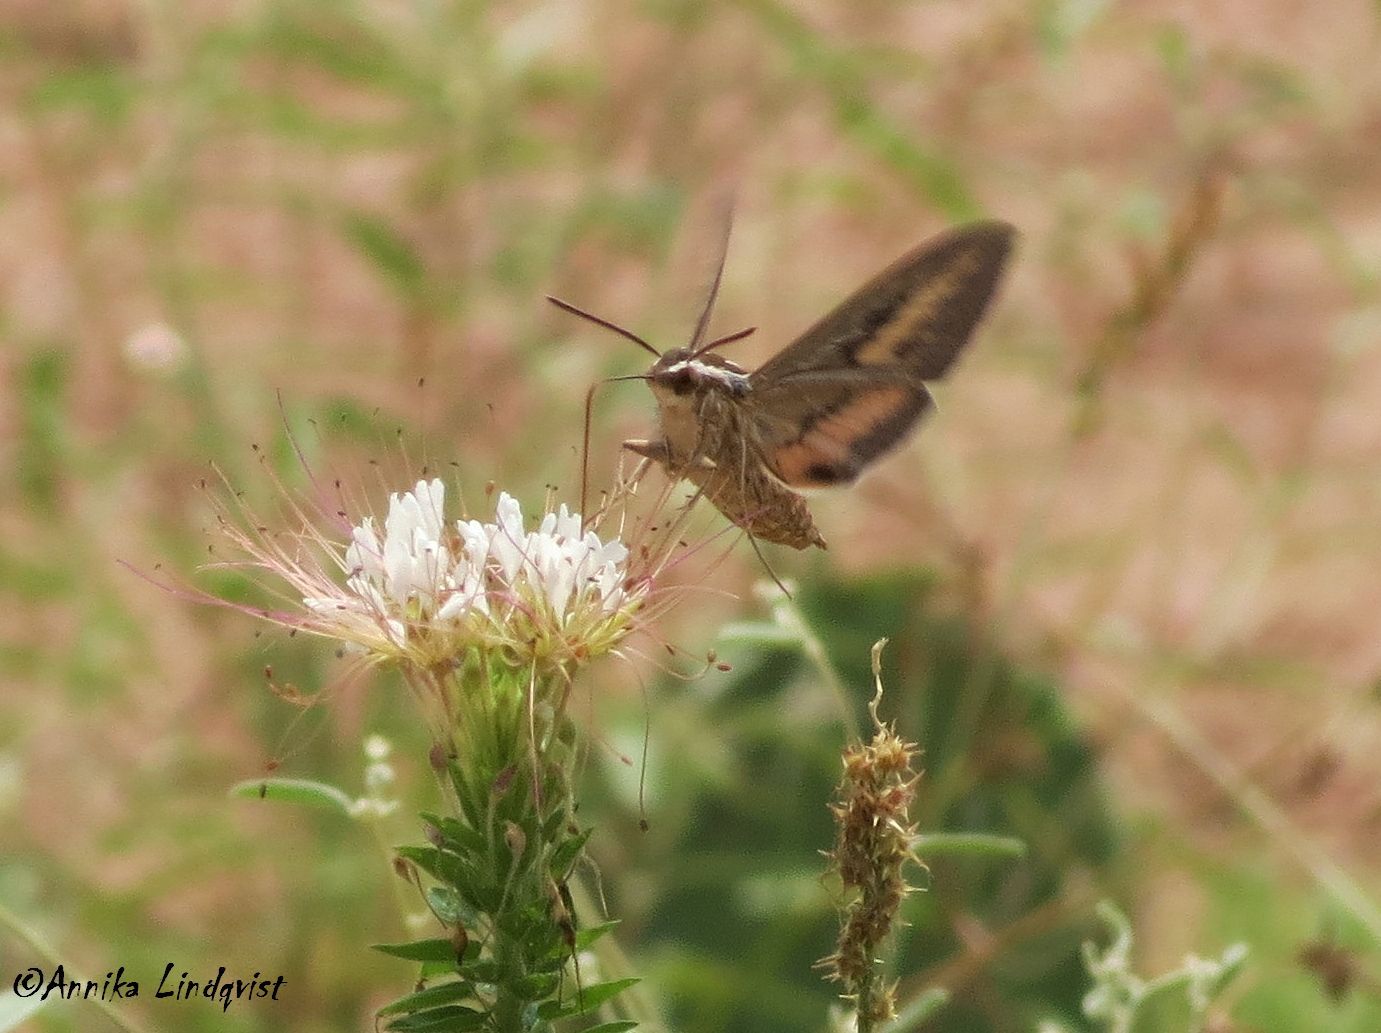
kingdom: Animalia
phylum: Arthropoda
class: Insecta
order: Lepidoptera
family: Sphingidae
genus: Hyles
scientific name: Hyles lineata
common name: White-lined sphinx
